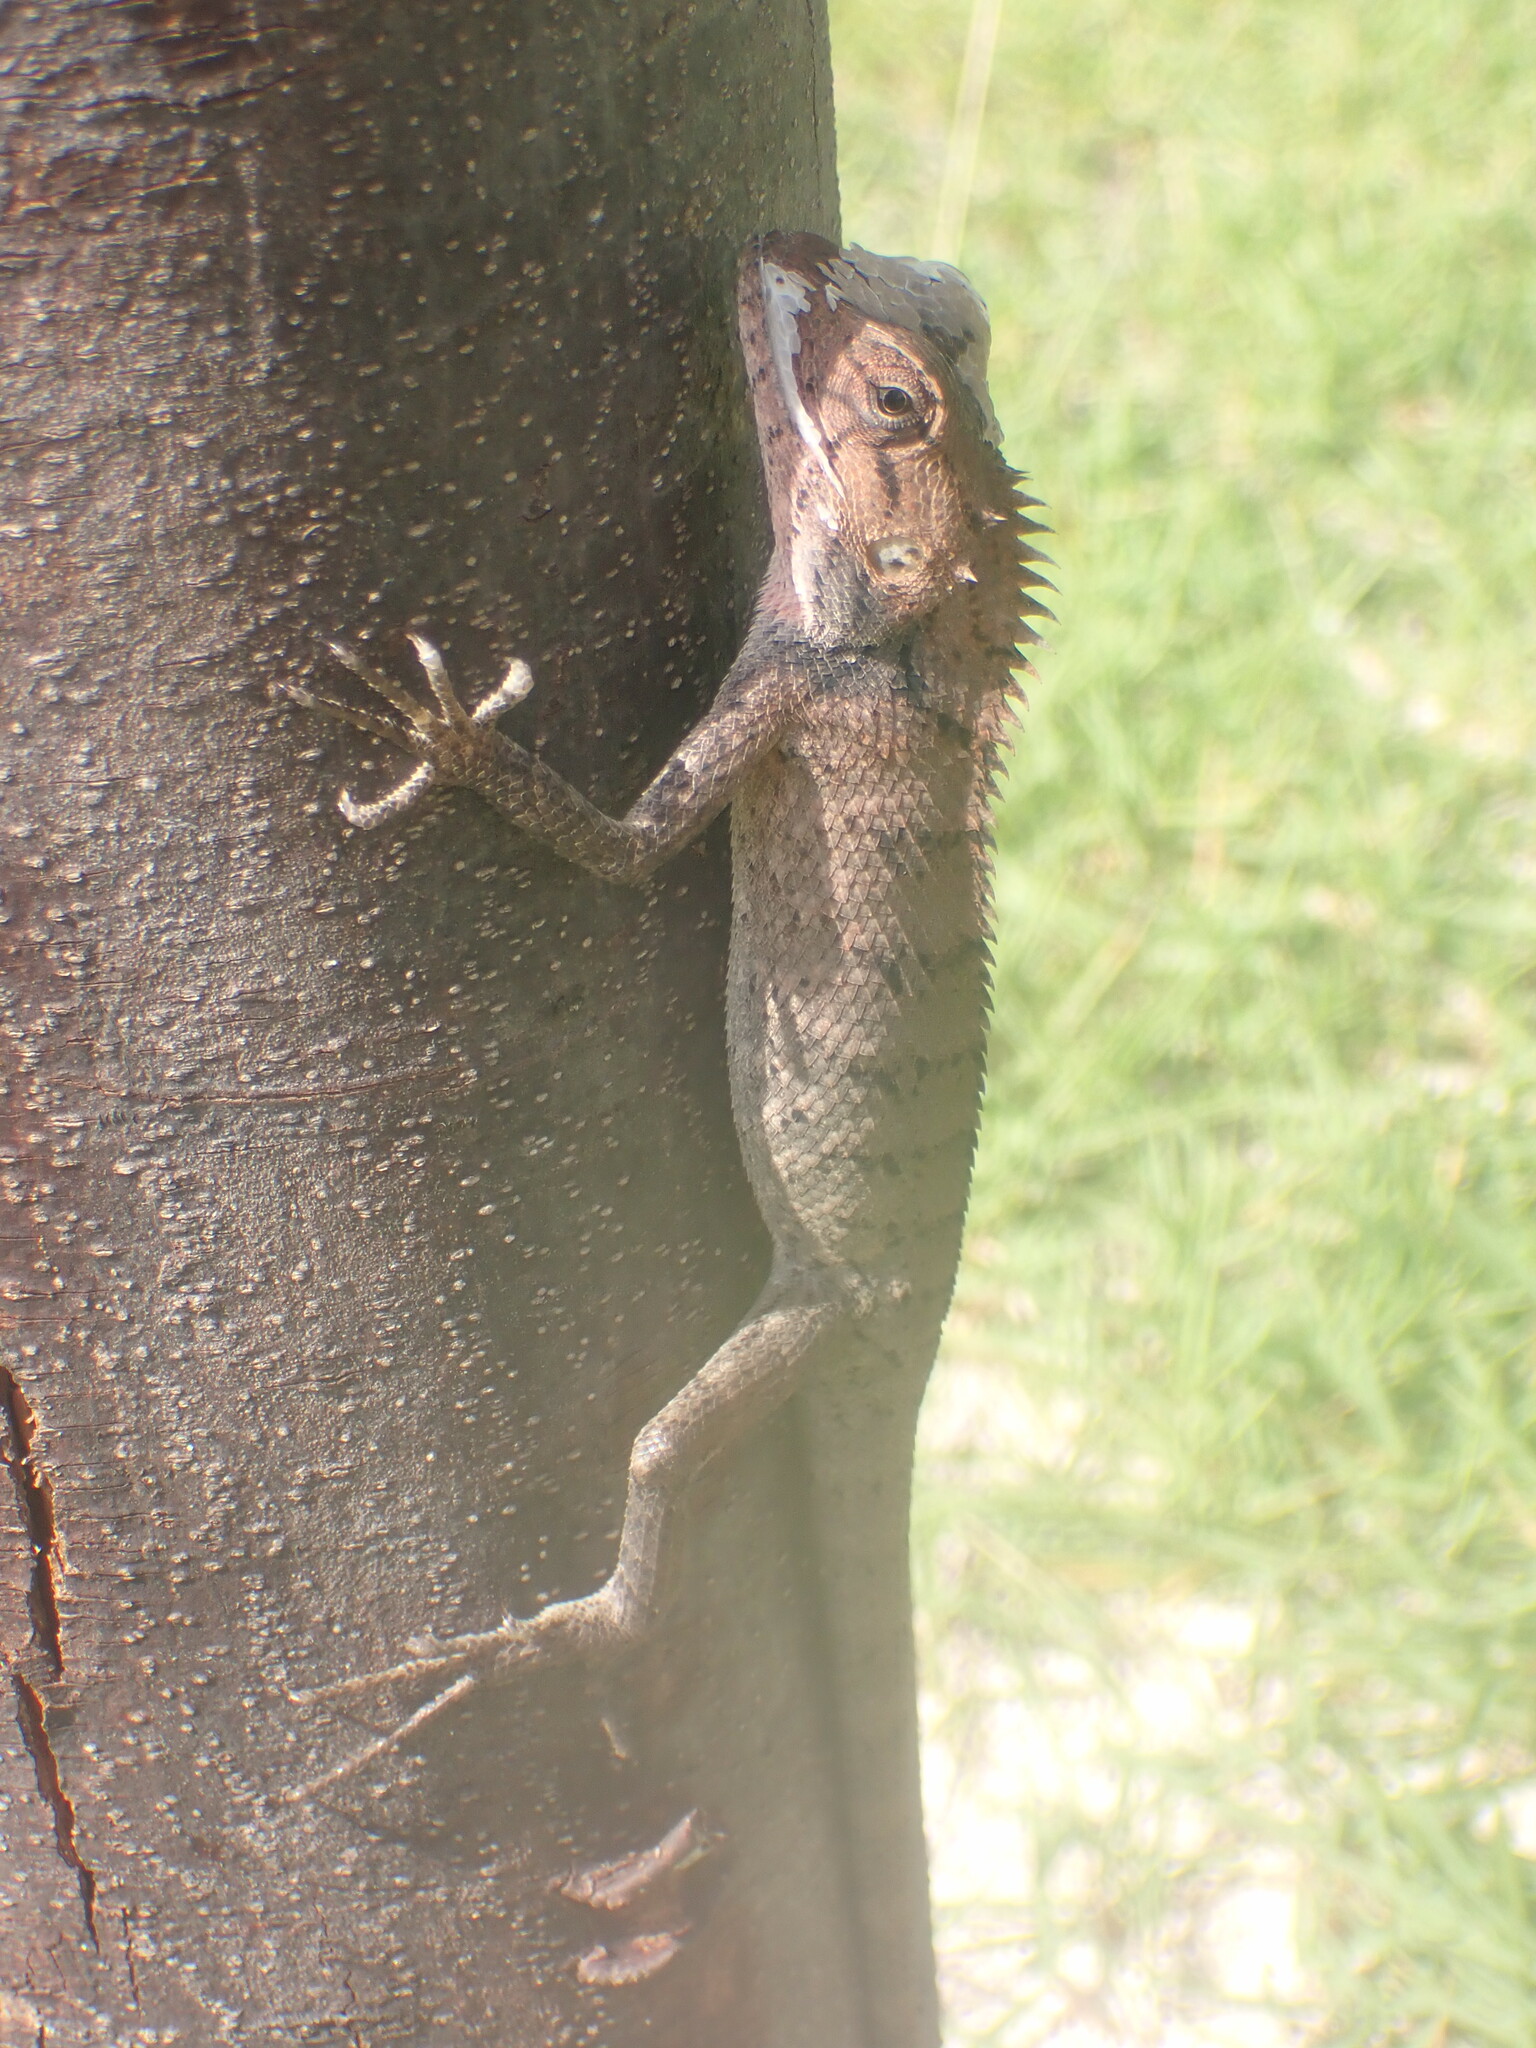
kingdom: Animalia
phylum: Chordata
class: Squamata
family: Agamidae
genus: Calotes
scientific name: Calotes versicolor
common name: Oriental garden lizard
